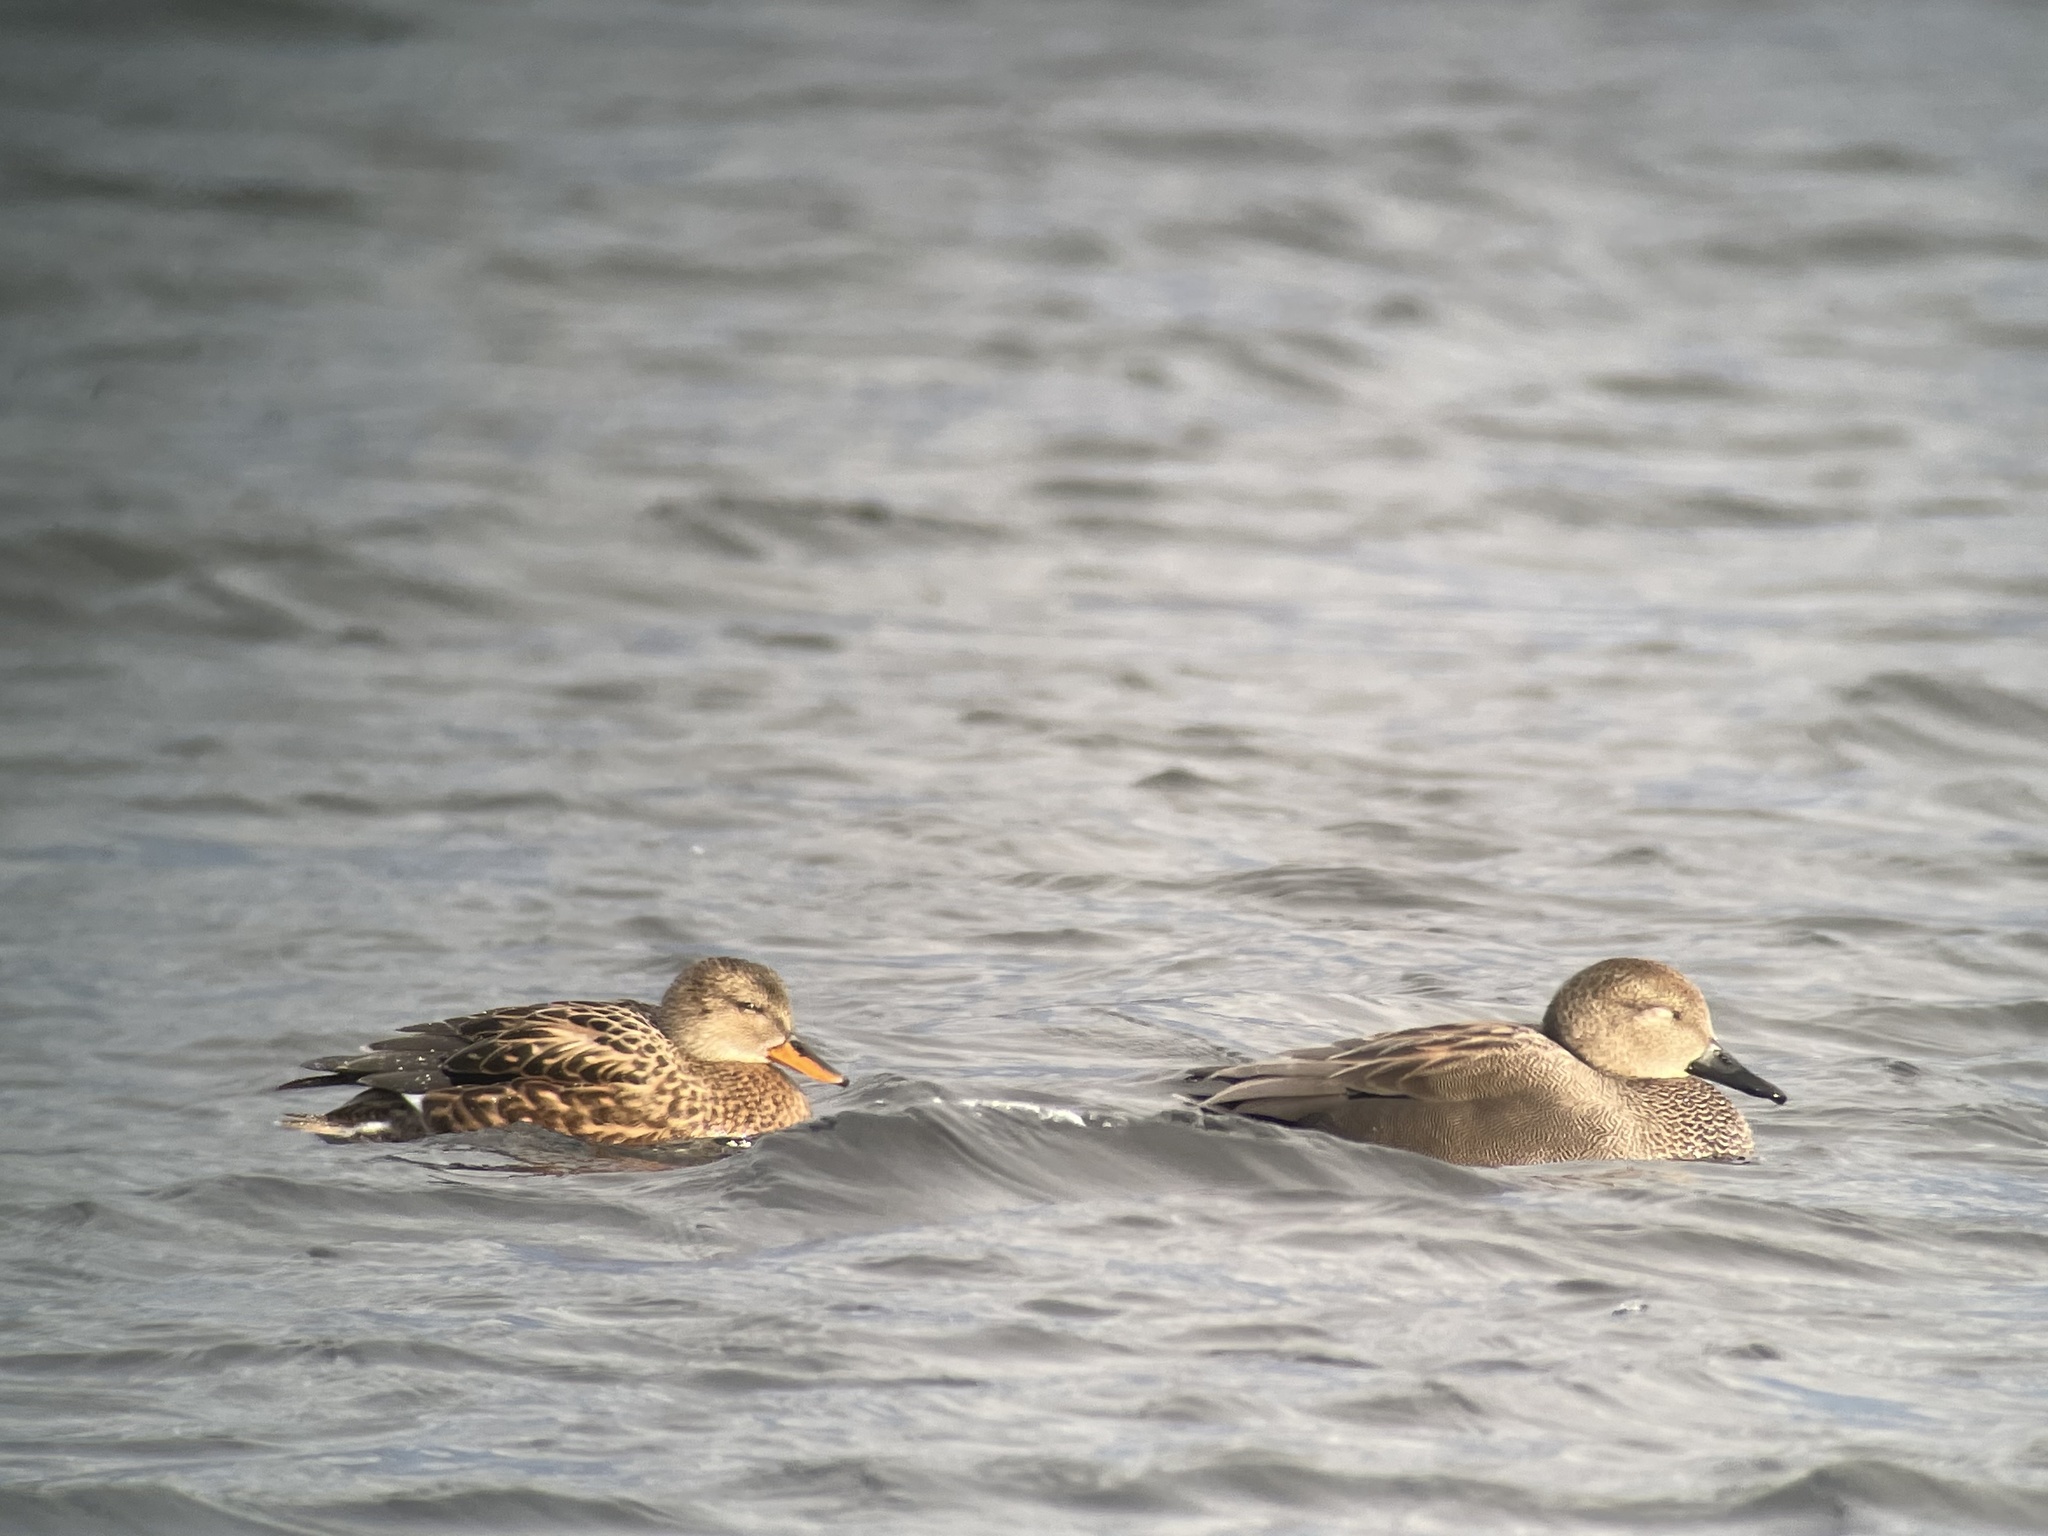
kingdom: Animalia
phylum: Chordata
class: Aves
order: Anseriformes
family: Anatidae
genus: Mareca
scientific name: Mareca strepera
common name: Gadwall
